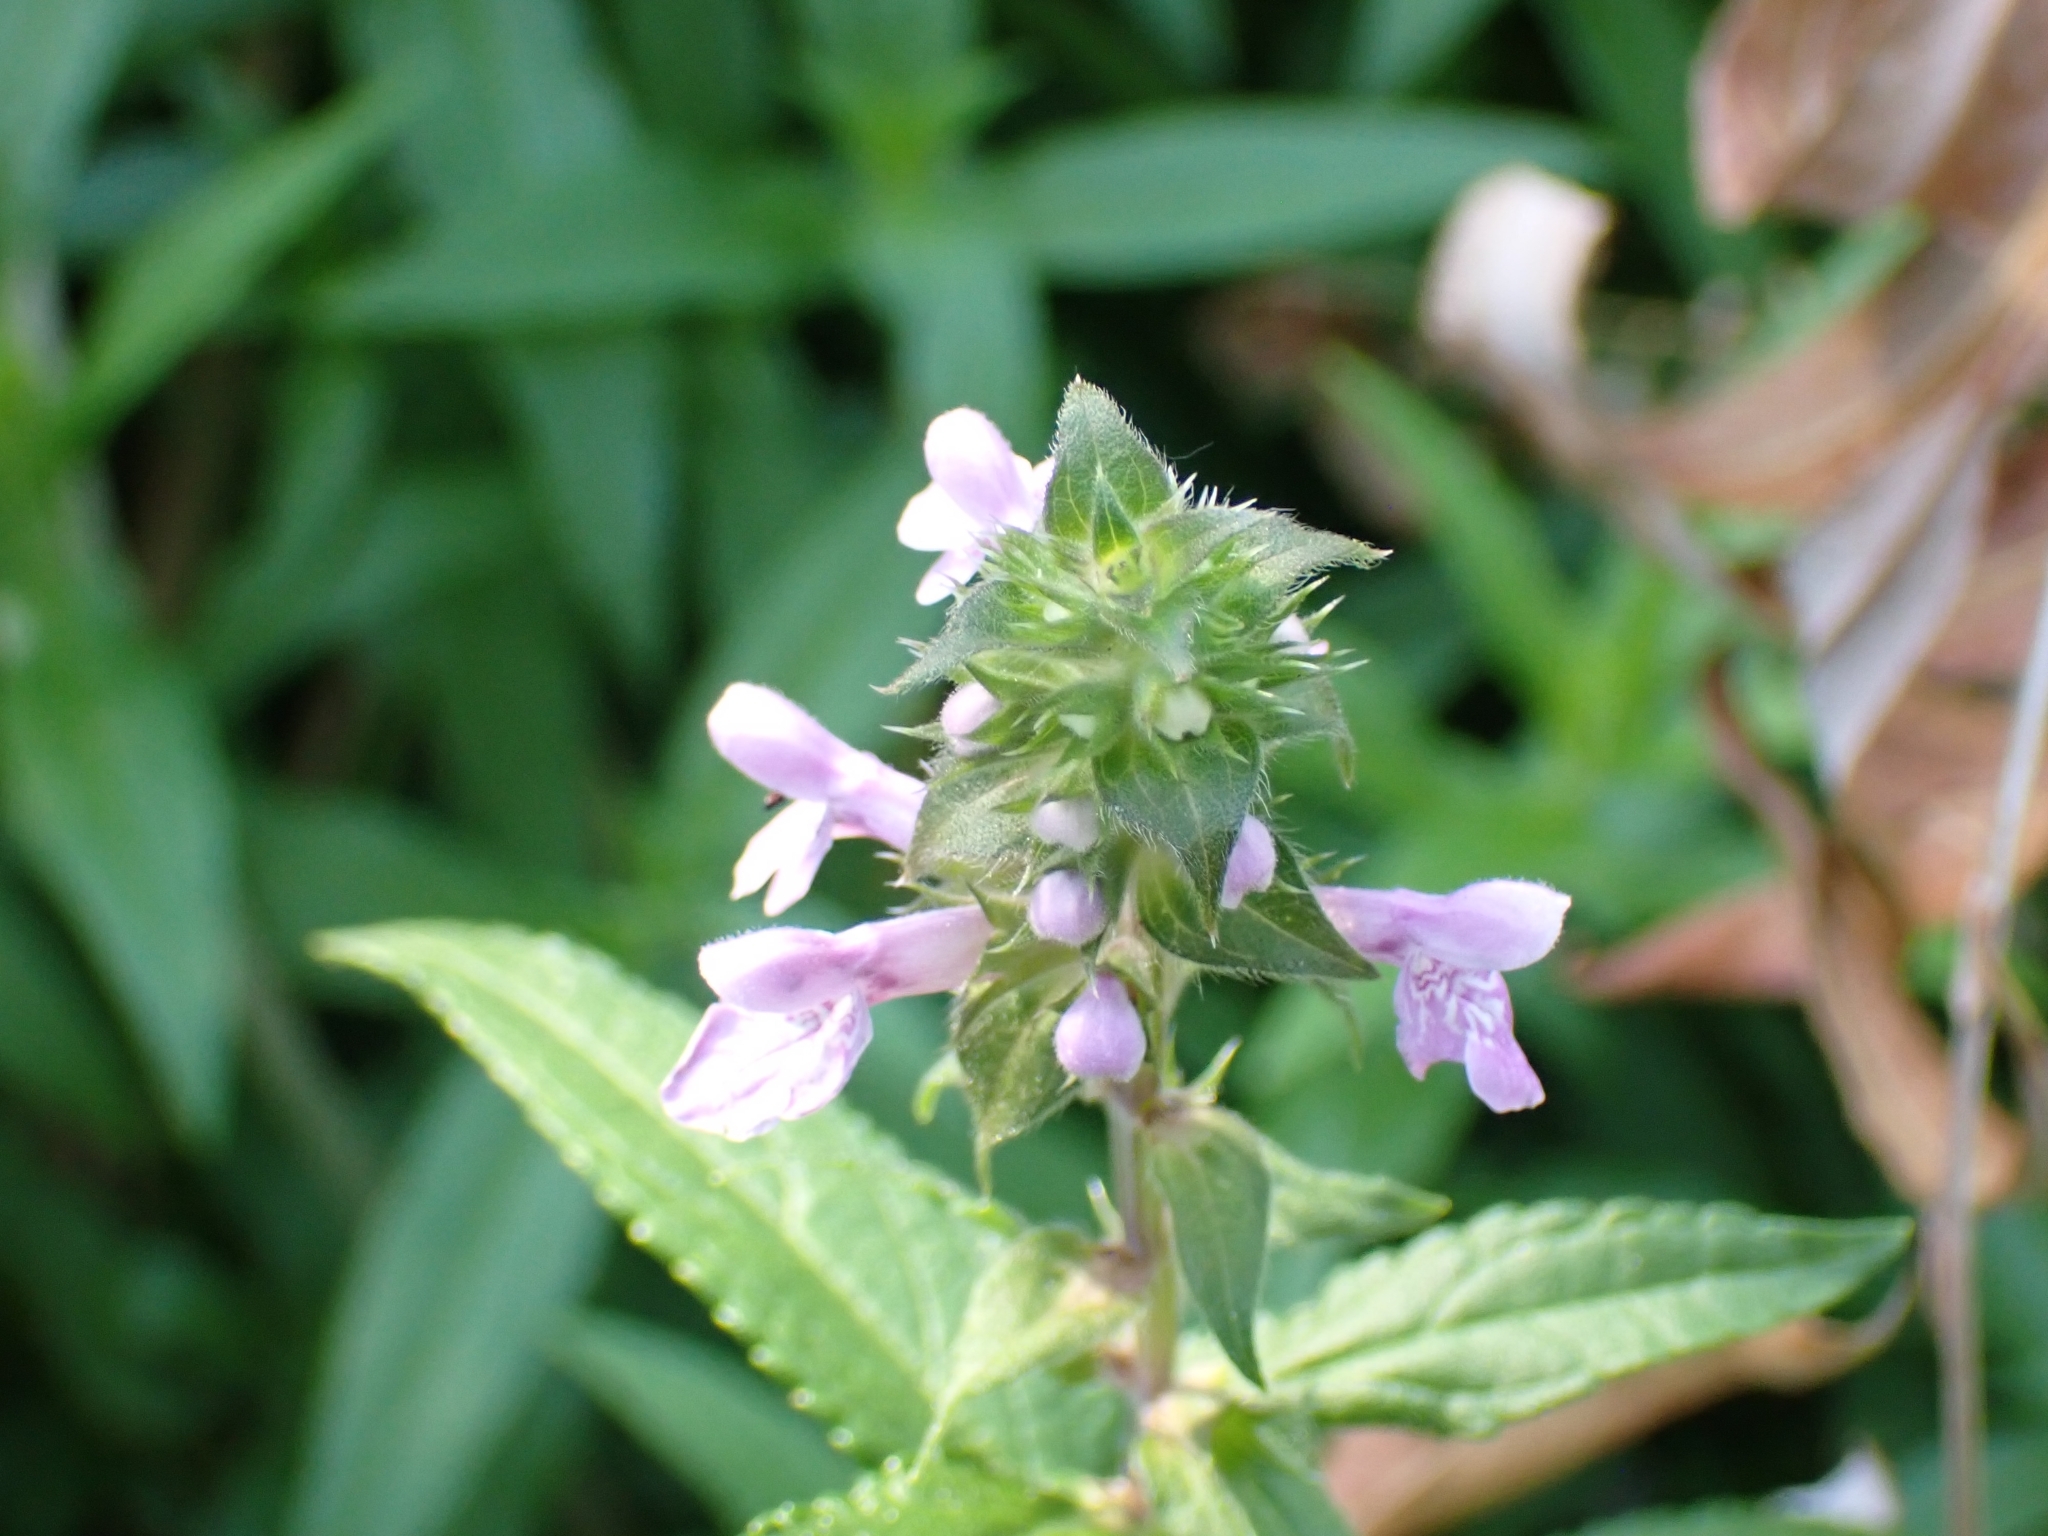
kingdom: Plantae
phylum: Tracheophyta
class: Magnoliopsida
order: Lamiales
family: Lamiaceae
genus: Stachys
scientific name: Stachys palustris
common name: Marsh woundwort
